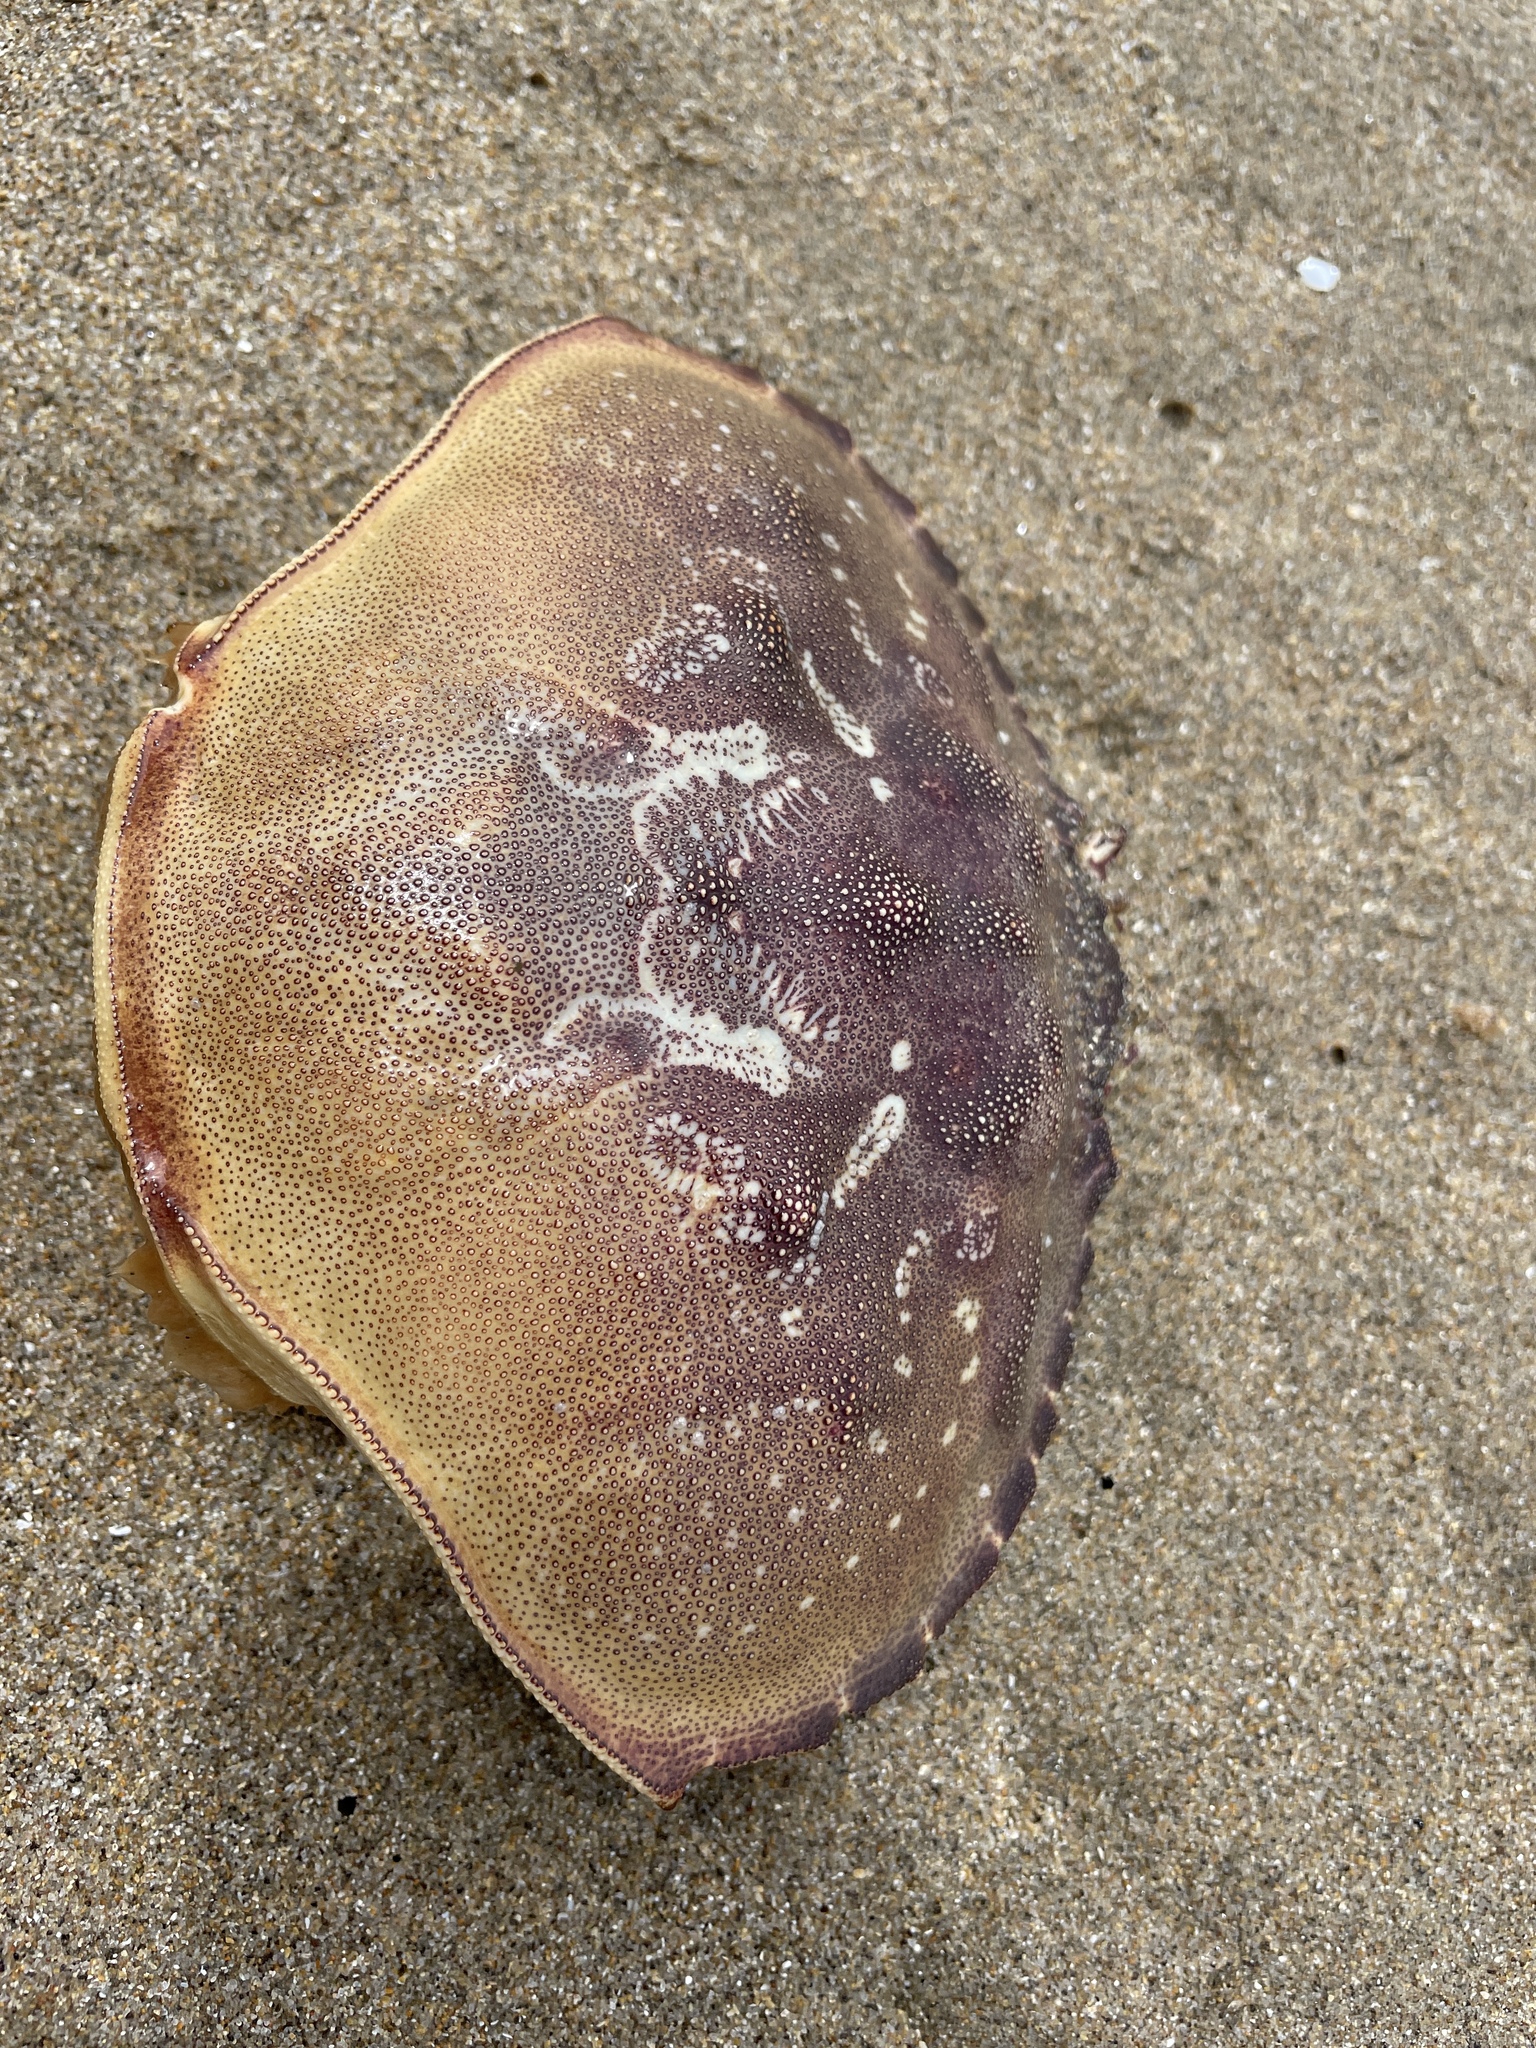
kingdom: Animalia
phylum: Arthropoda
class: Malacostraca
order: Decapoda
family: Cancridae
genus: Metacarcinus
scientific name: Metacarcinus magister
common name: Californian crab
